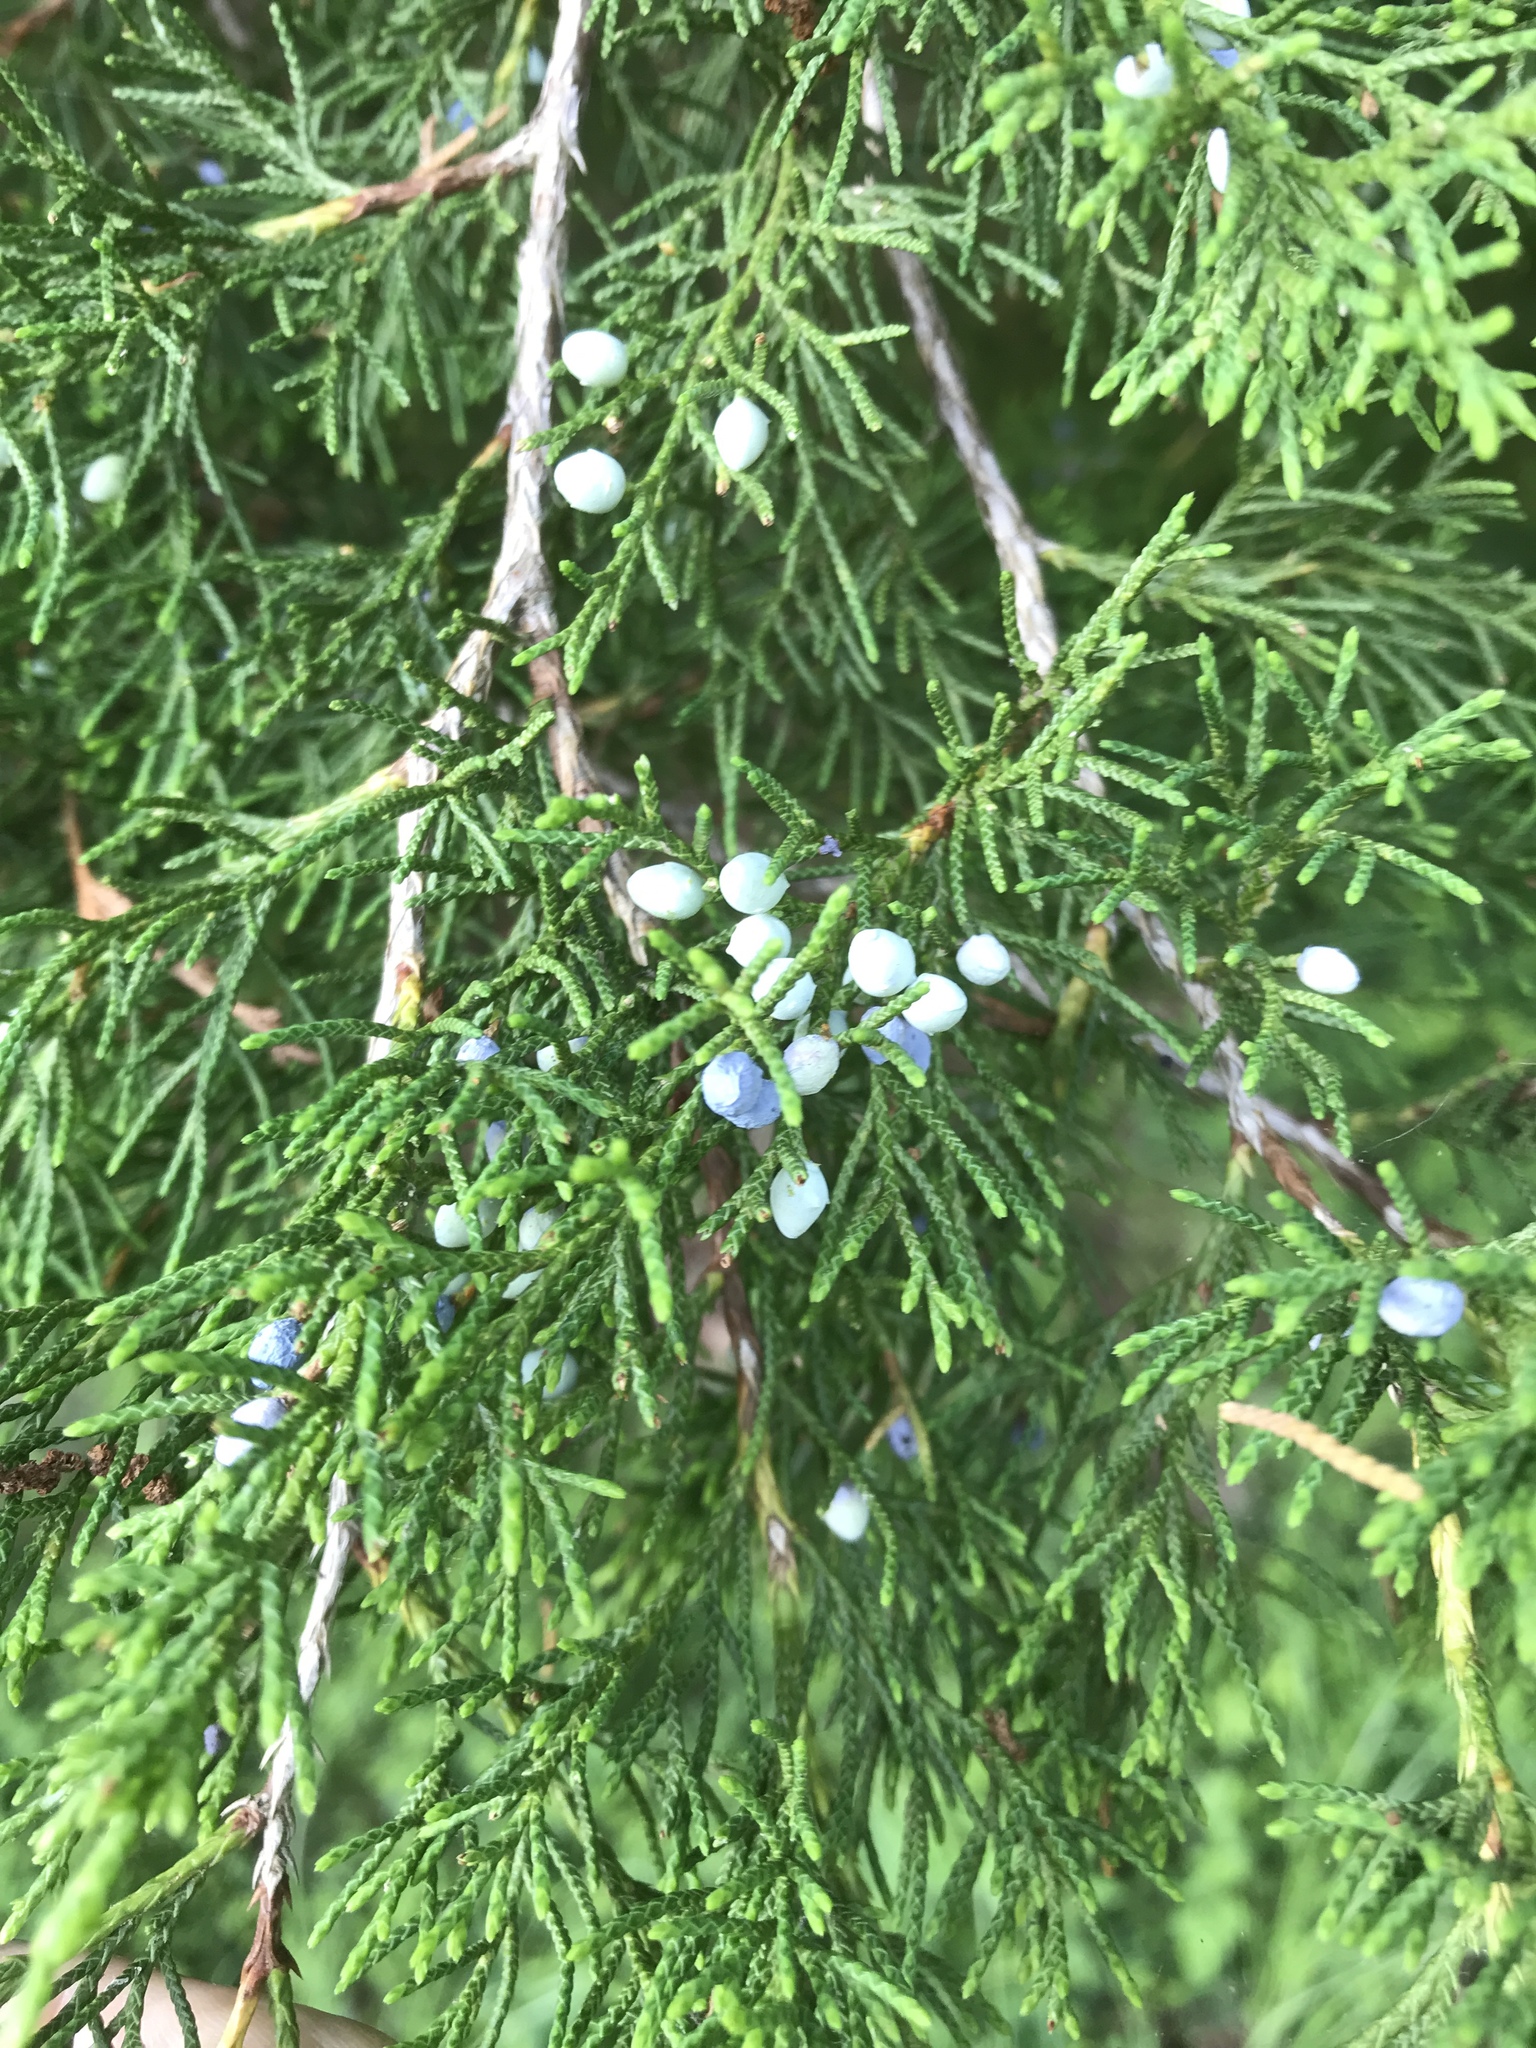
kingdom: Plantae
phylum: Tracheophyta
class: Pinopsida
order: Pinales
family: Cupressaceae
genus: Juniperus
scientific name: Juniperus virginiana
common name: Red juniper
